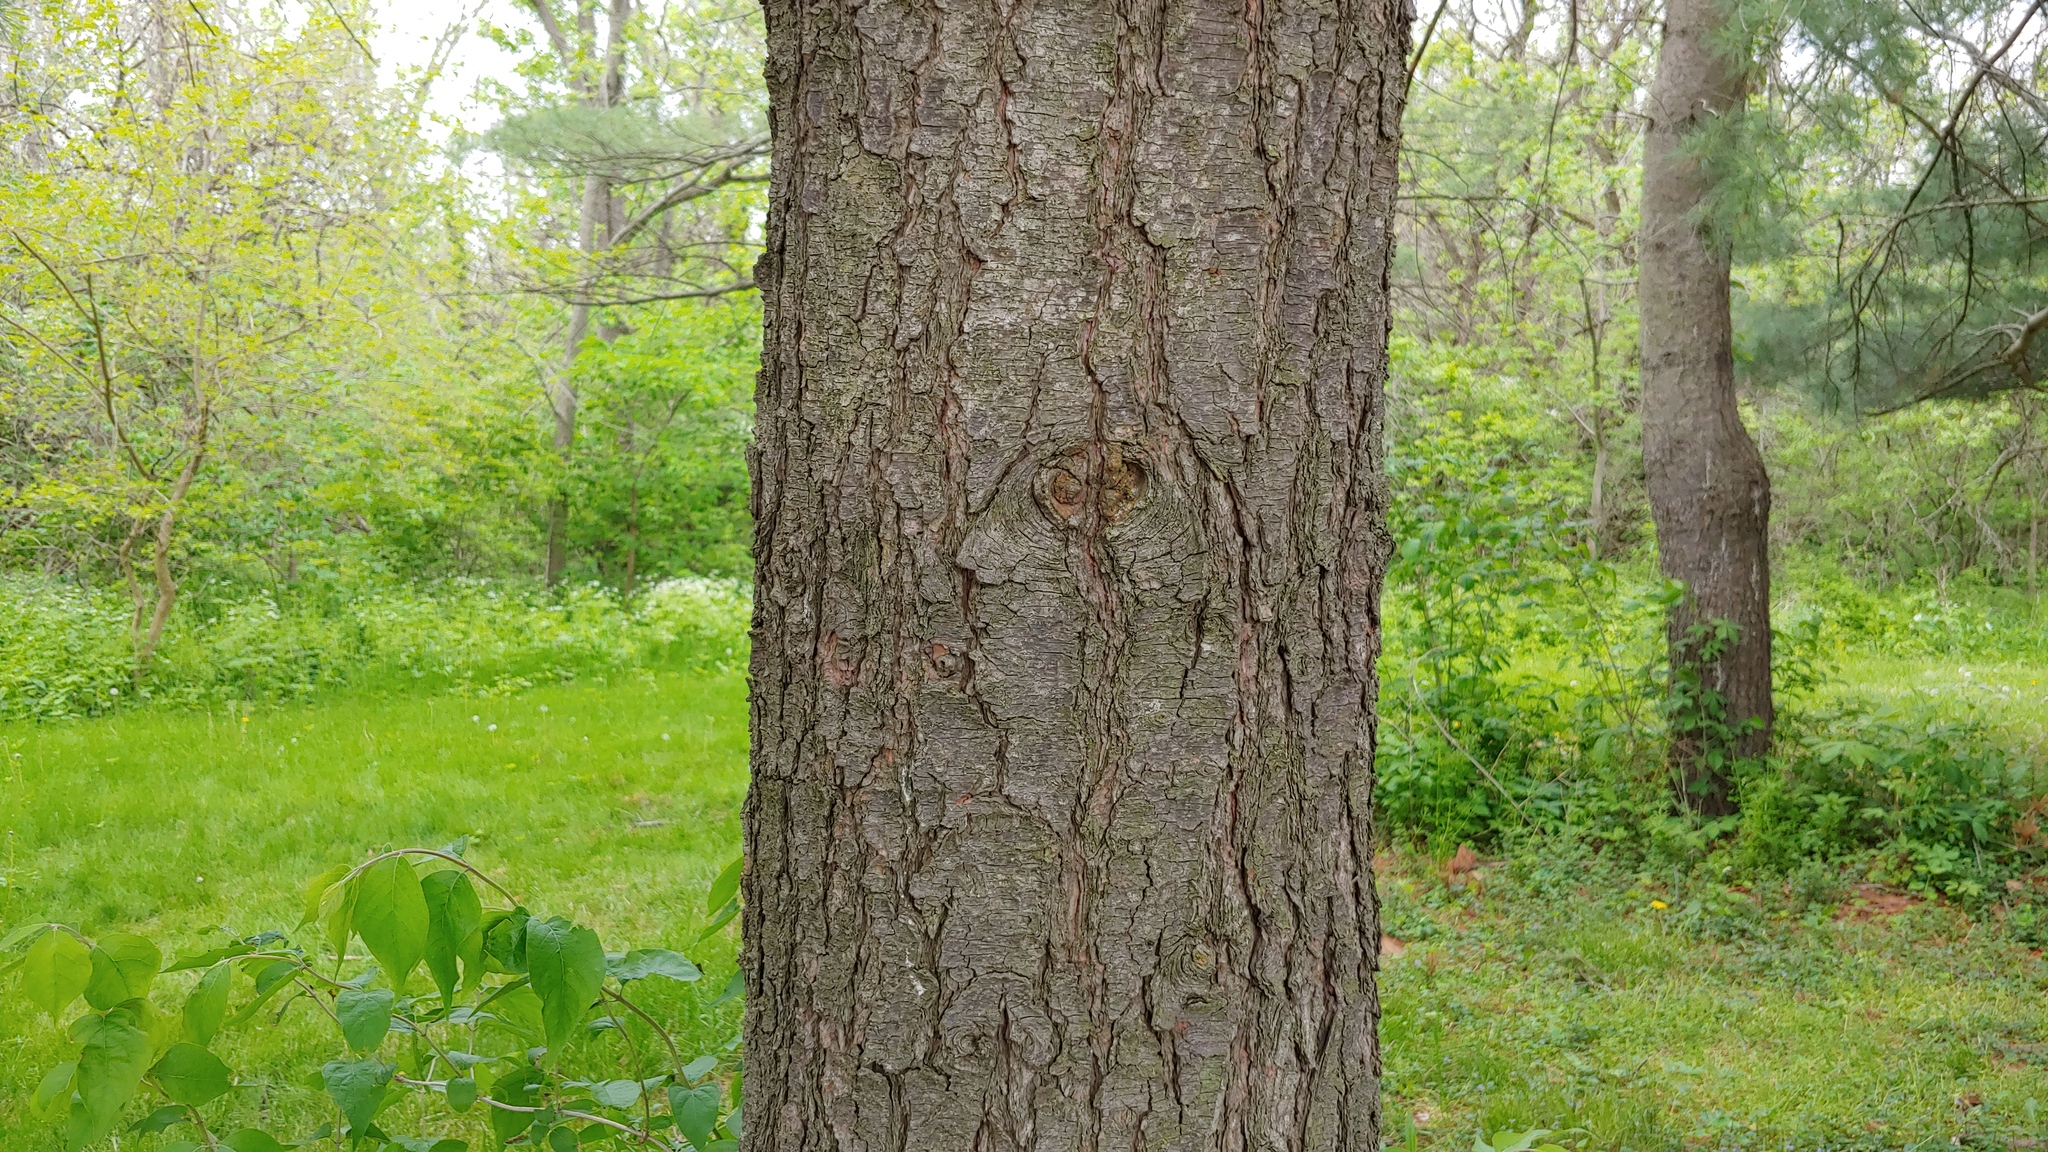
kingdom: Plantae
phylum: Tracheophyta
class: Pinopsida
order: Pinales
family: Pinaceae
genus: Pinus
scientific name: Pinus strobus
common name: Weymouth pine
